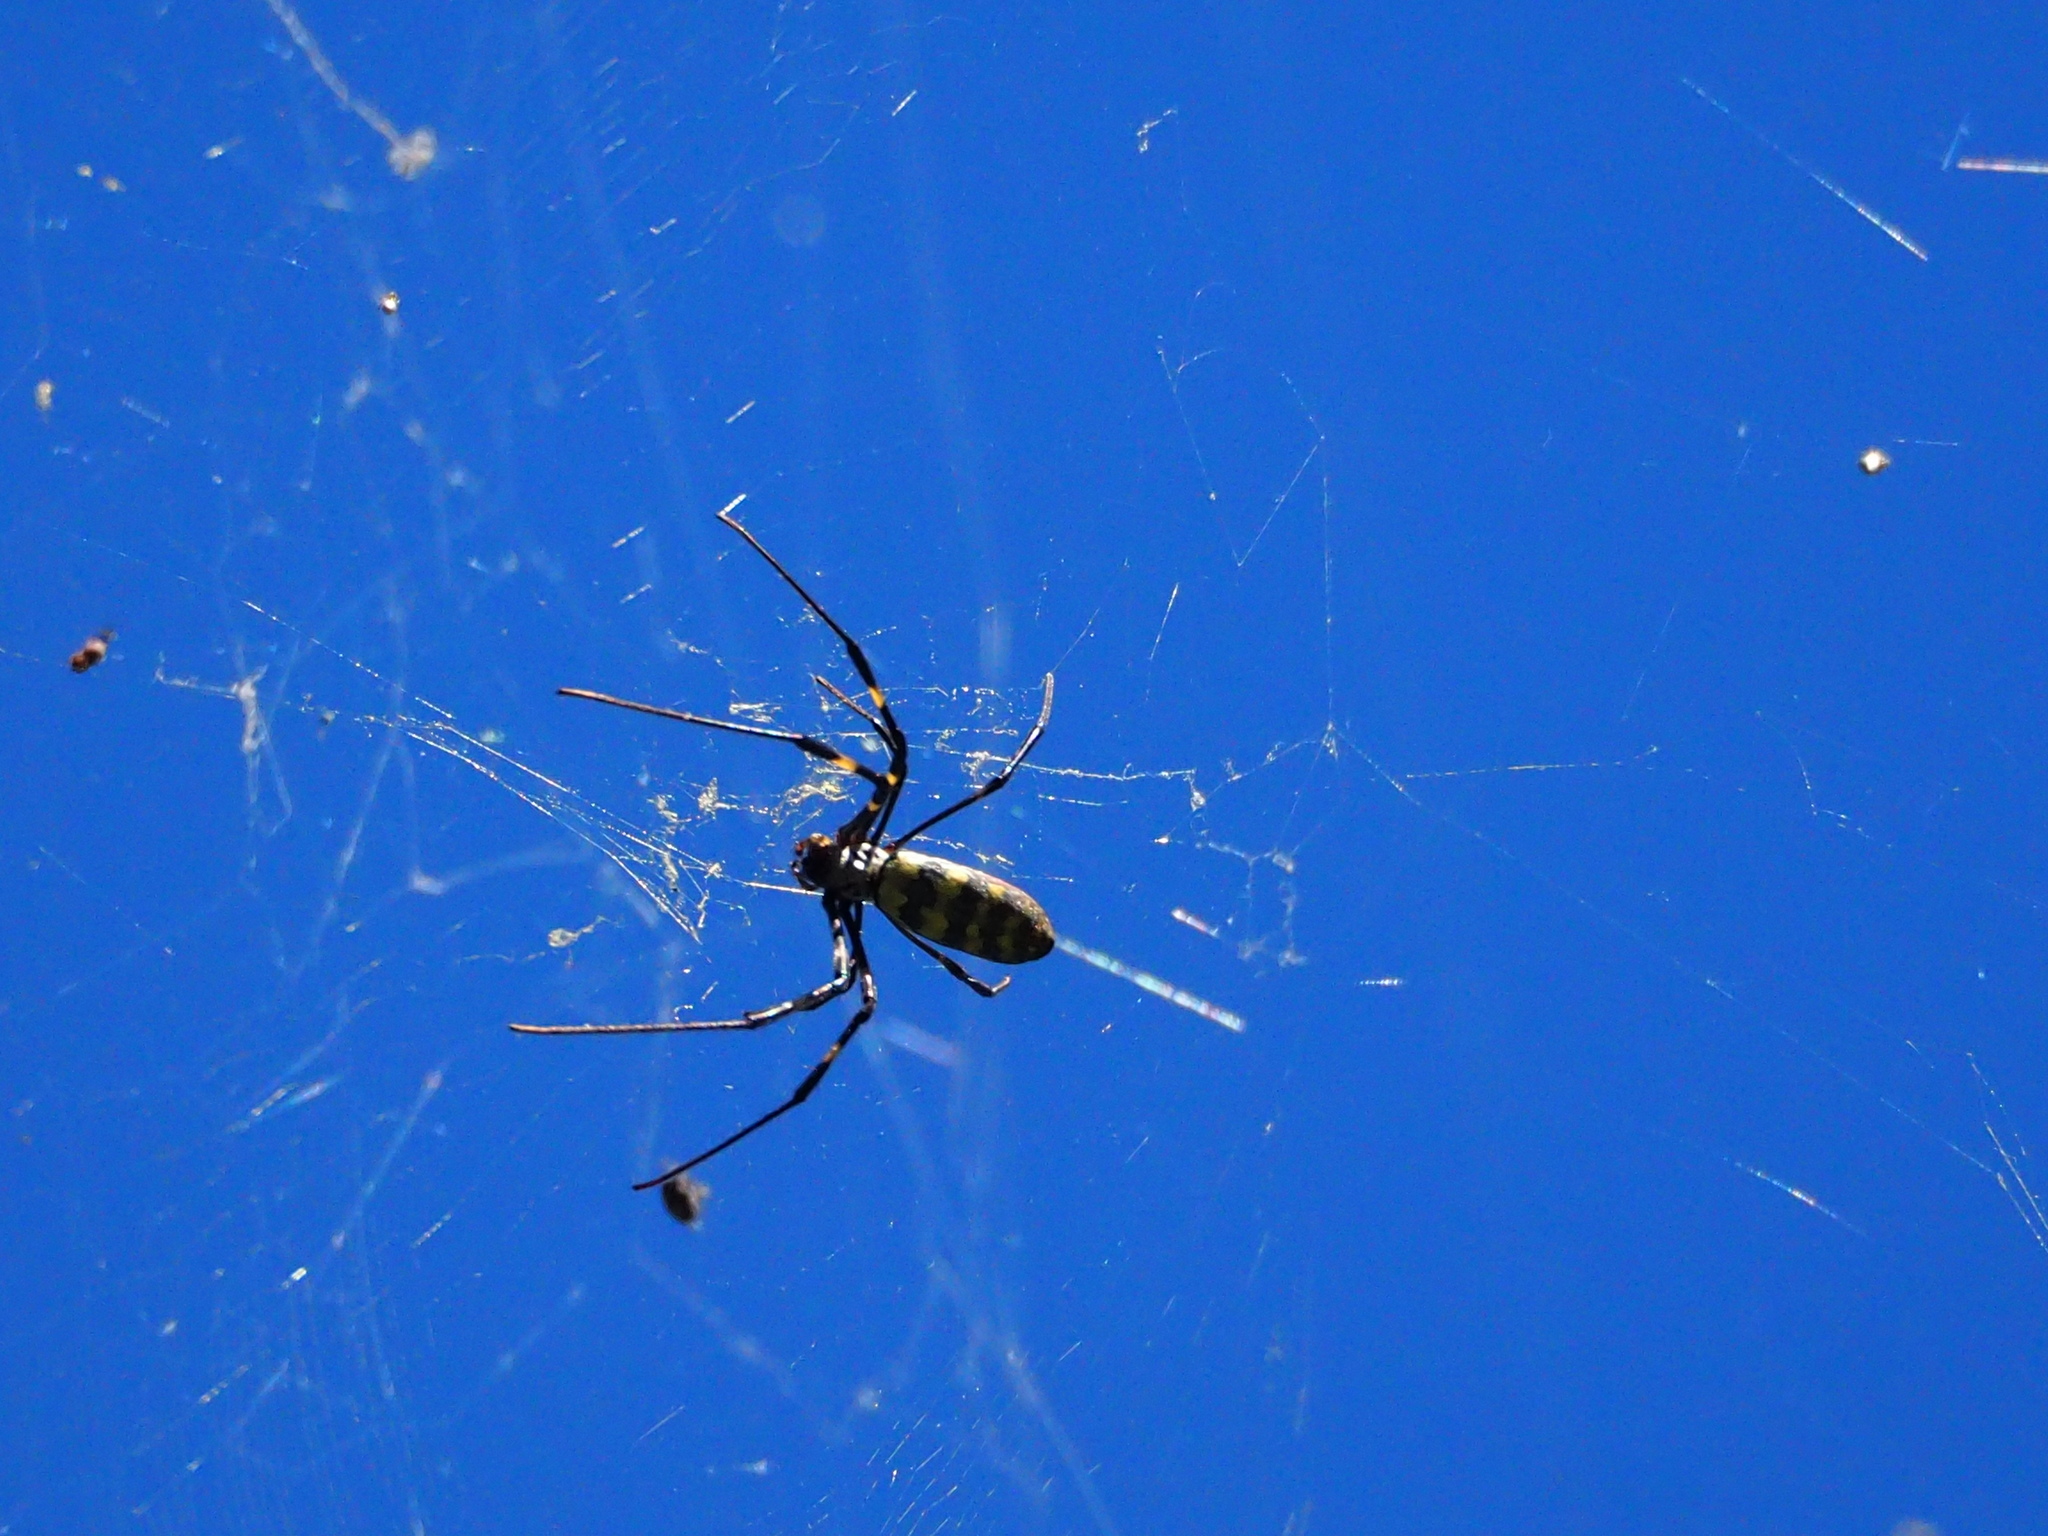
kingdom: Animalia
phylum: Arthropoda
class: Arachnida
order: Araneae
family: Araneidae
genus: Trichonephila
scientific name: Trichonephila clavata
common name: Jorō spider
